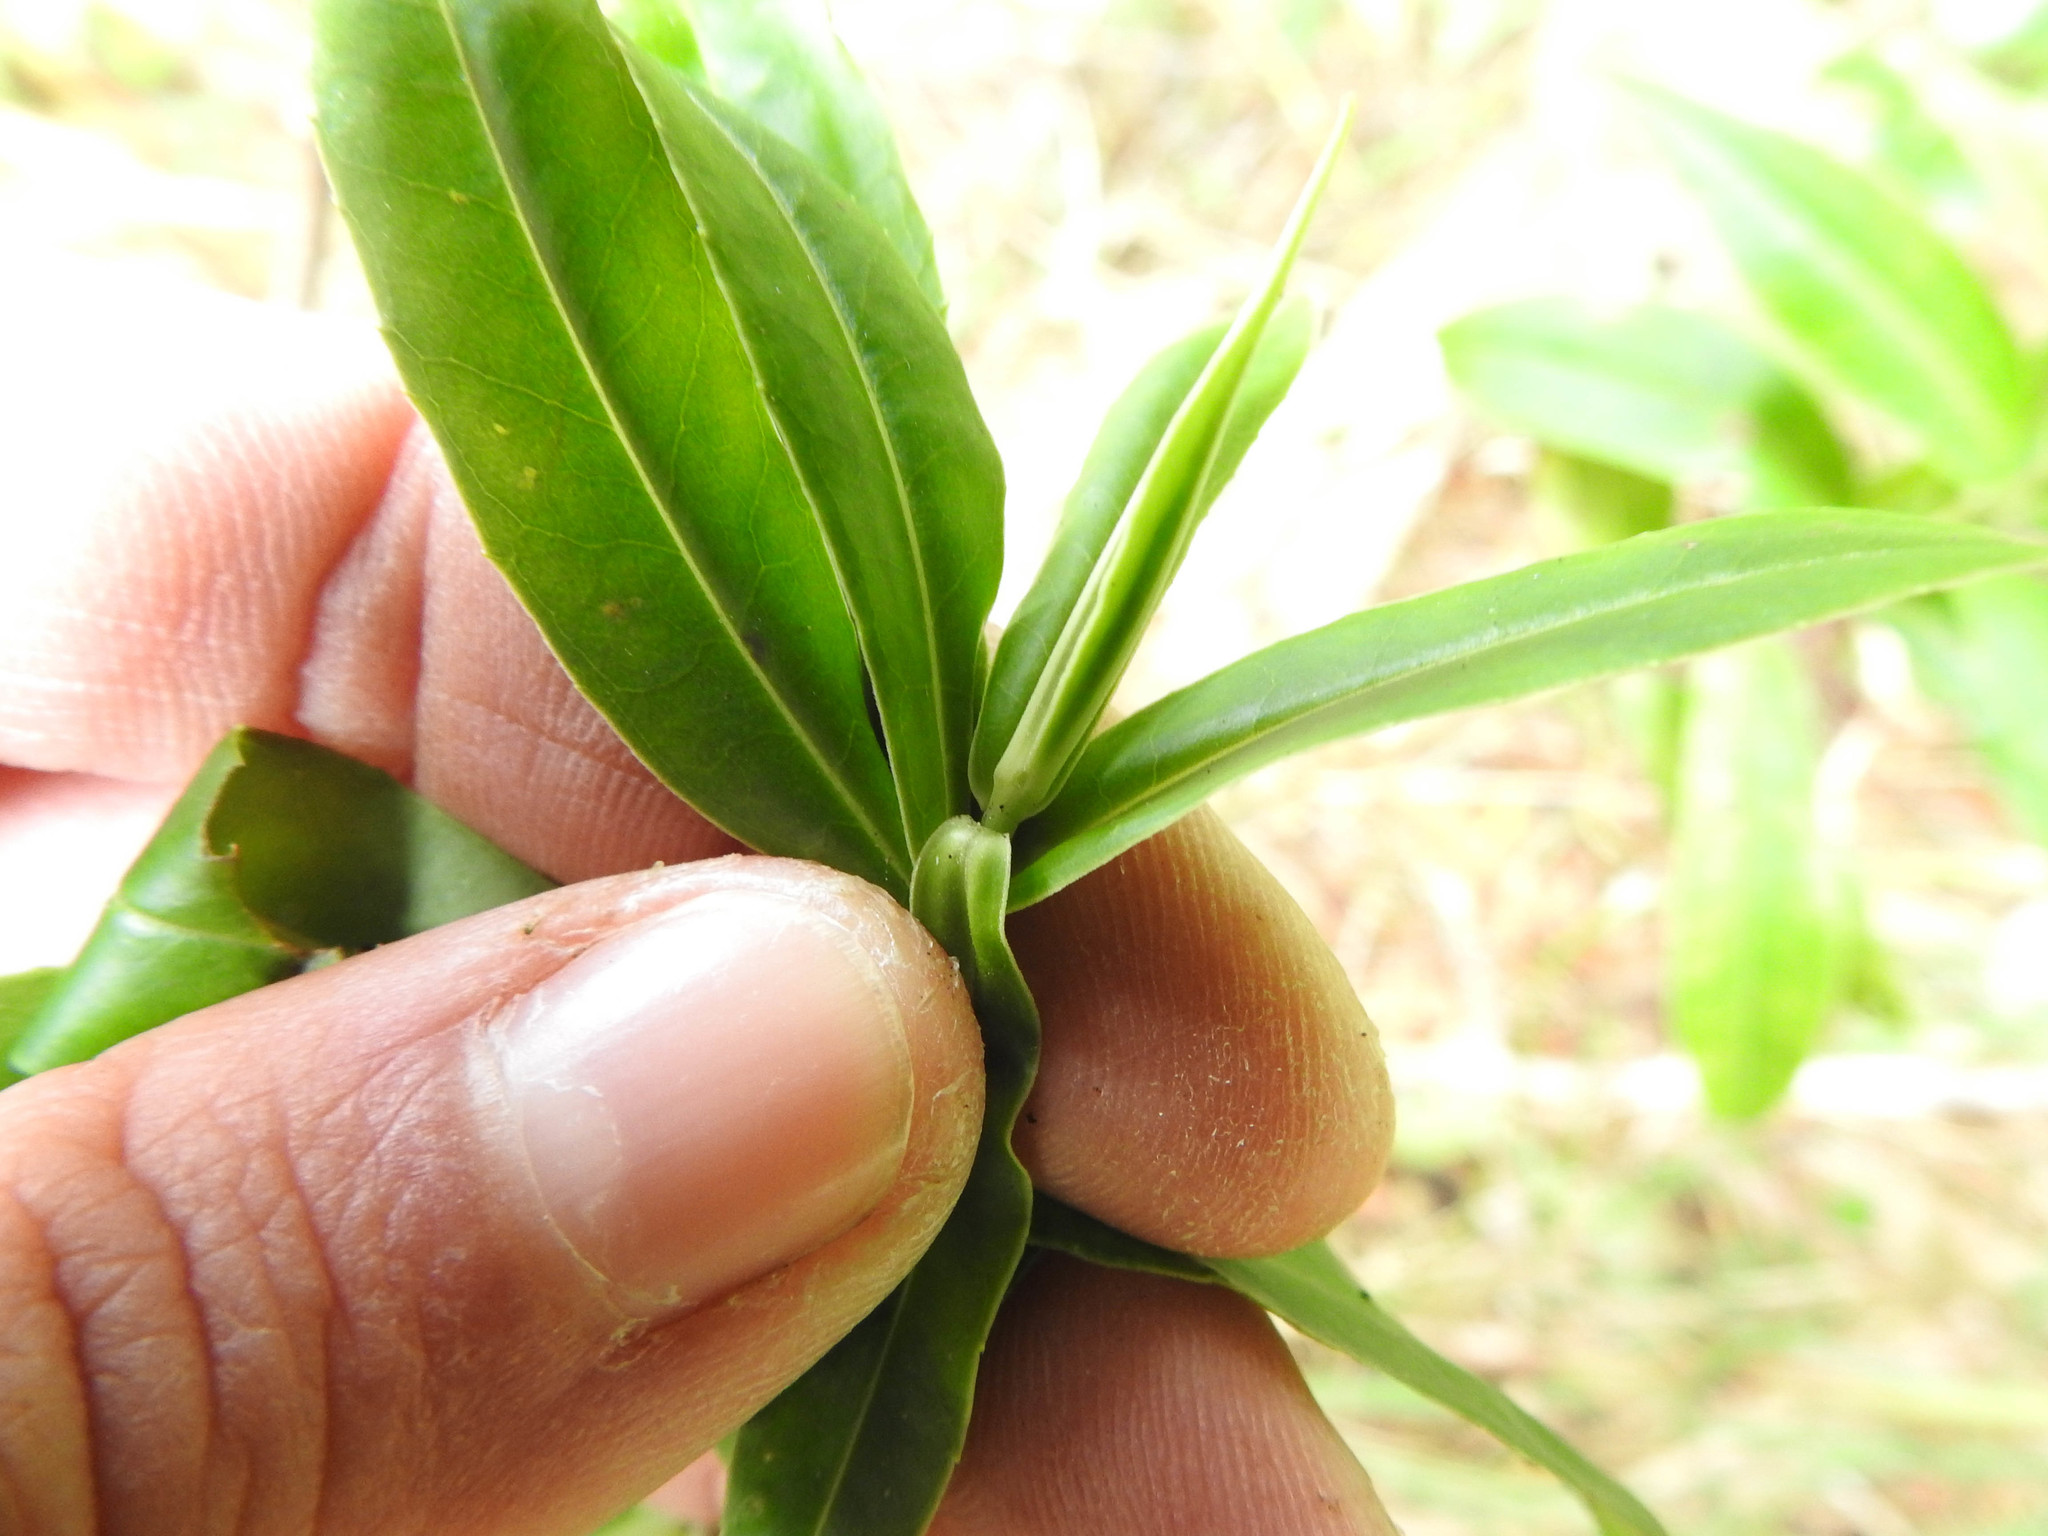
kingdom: Plantae
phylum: Tracheophyta
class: Magnoliopsida
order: Lamiales
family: Plantaginaceae
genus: Veronica
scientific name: Veronica salicifolia
